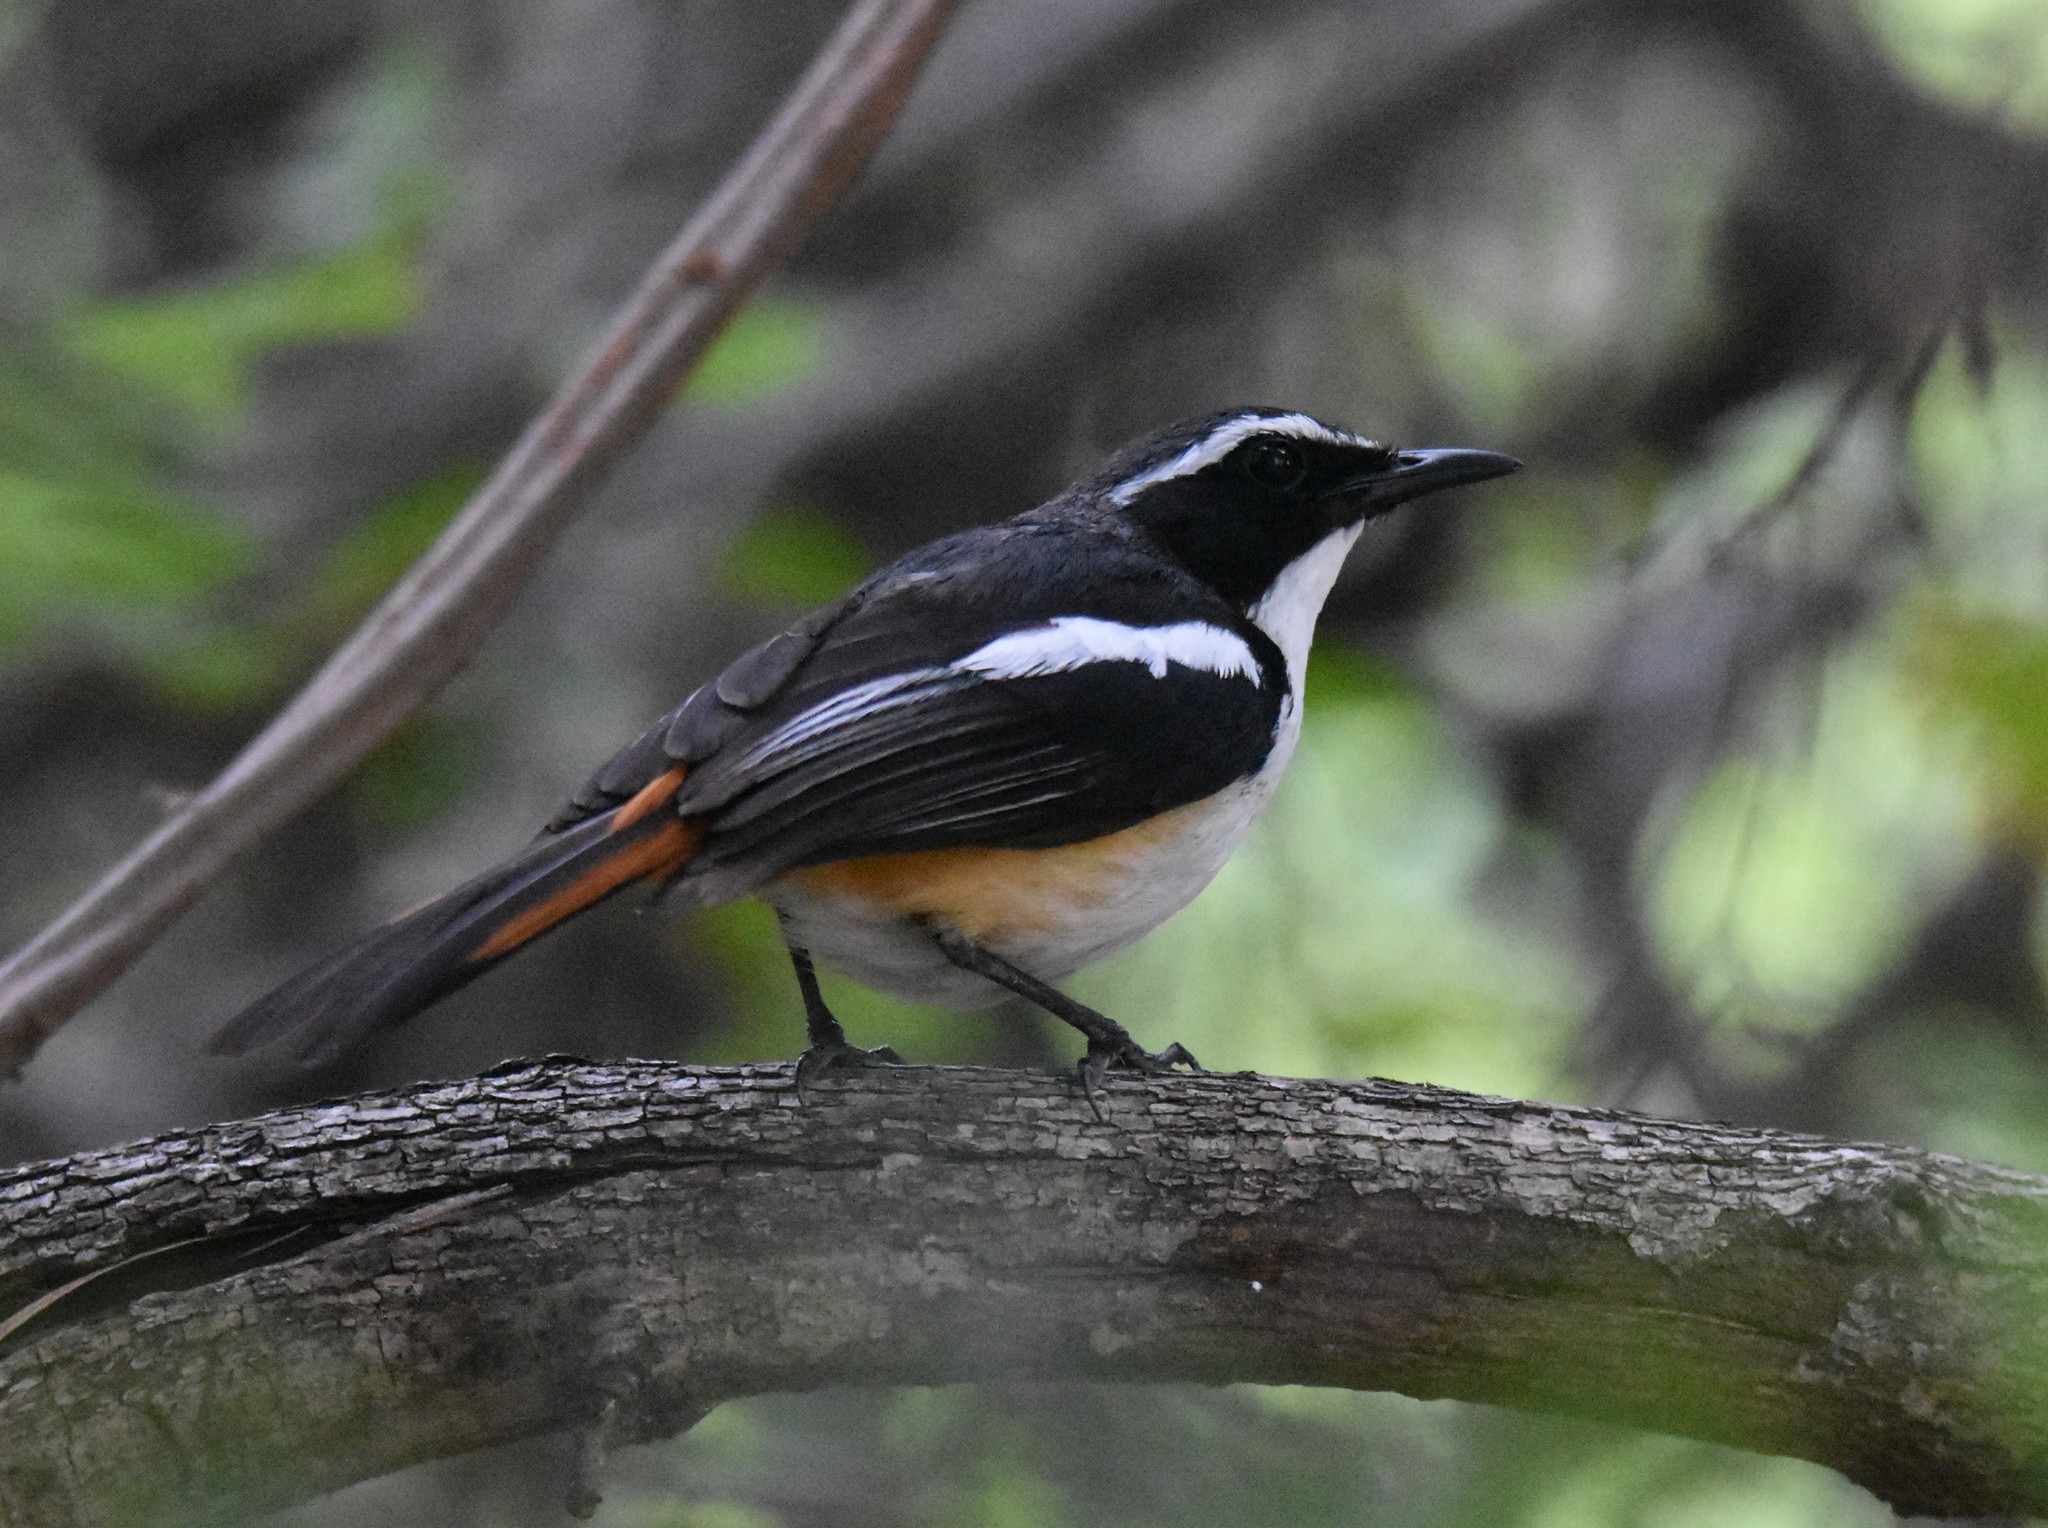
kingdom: Animalia
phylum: Chordata
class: Aves
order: Passeriformes
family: Muscicapidae
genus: Cossypha
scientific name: Cossypha humeralis
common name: White-throated robin-chat
